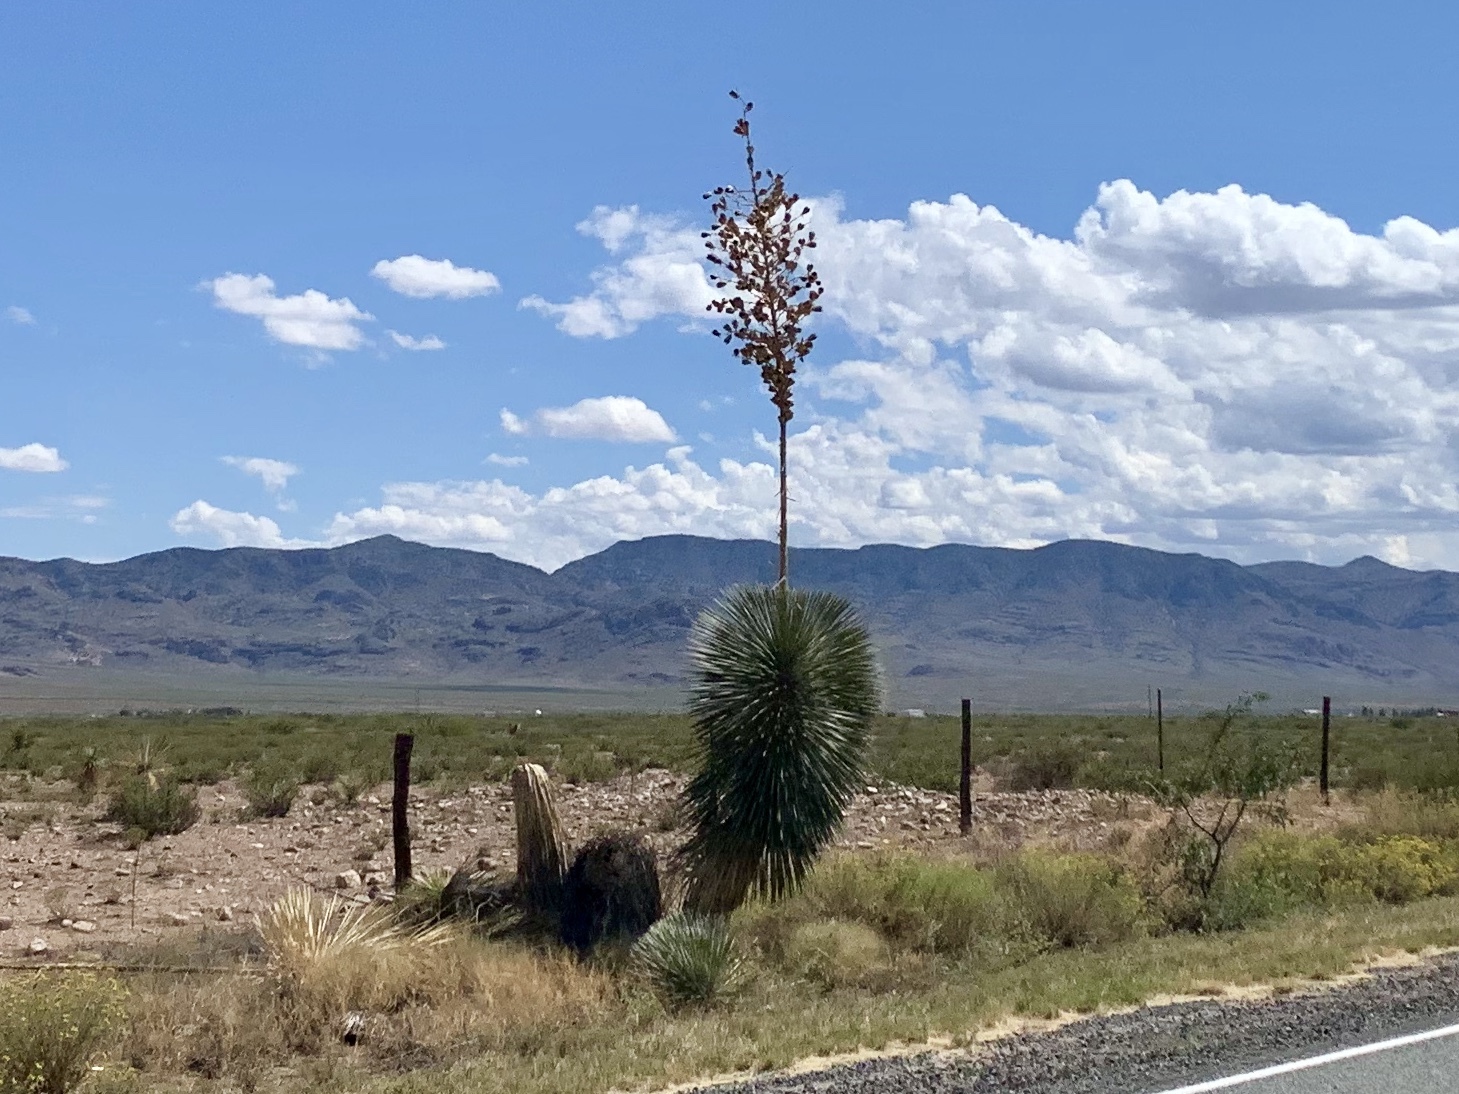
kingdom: Plantae
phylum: Tracheophyta
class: Liliopsida
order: Asparagales
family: Asparagaceae
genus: Yucca
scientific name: Yucca elata
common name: Palmella
